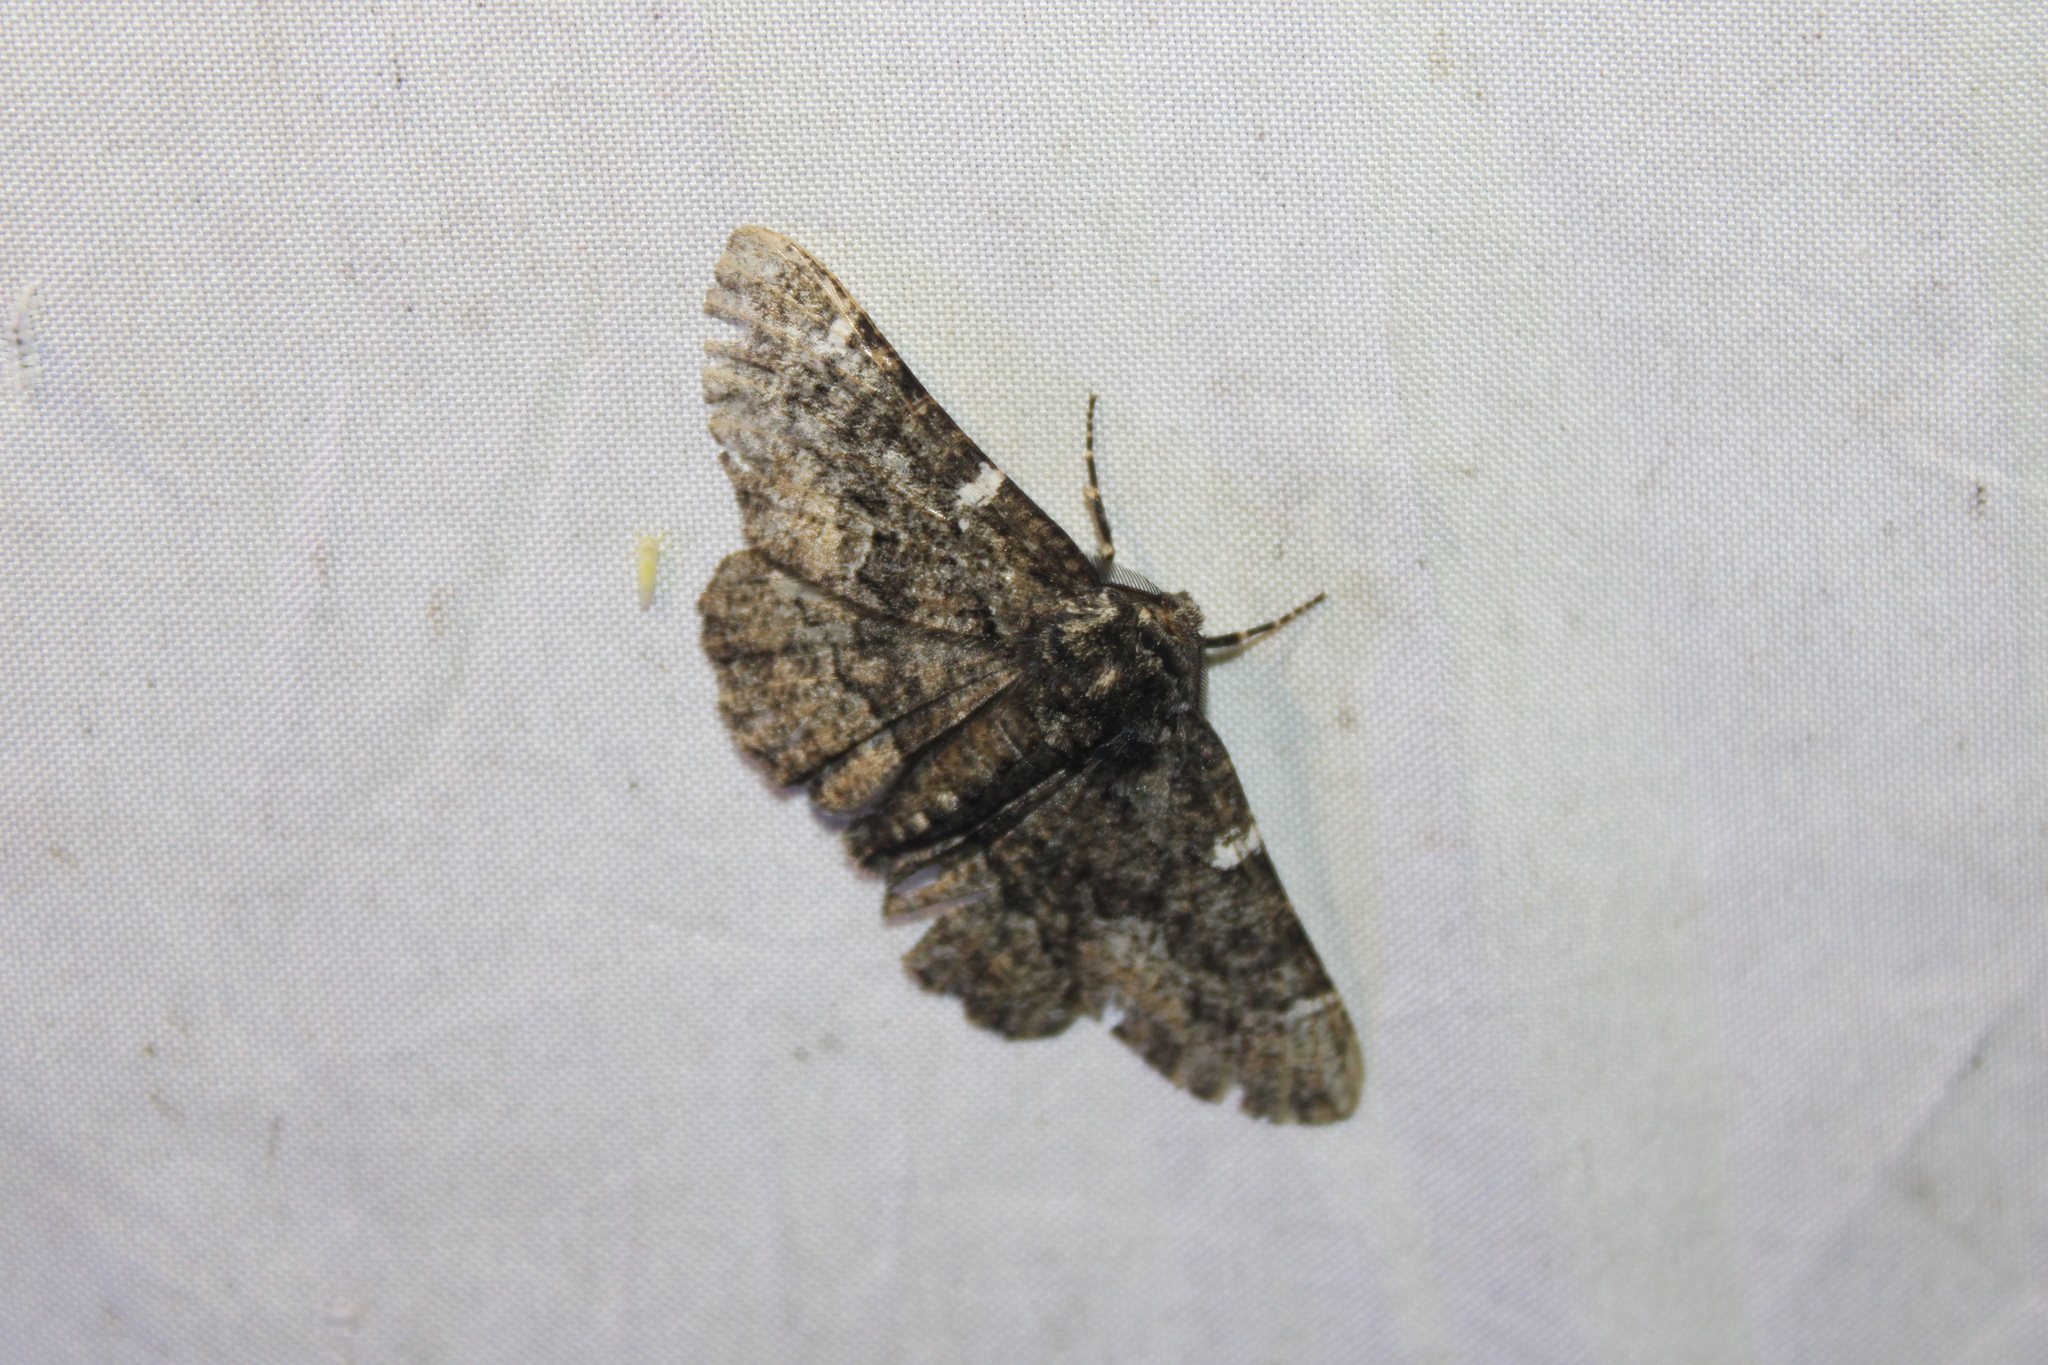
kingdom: Animalia
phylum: Arthropoda
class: Insecta
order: Lepidoptera
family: Geometridae
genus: Phaeoura
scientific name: Phaeoura quernaria
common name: Oak beauty
